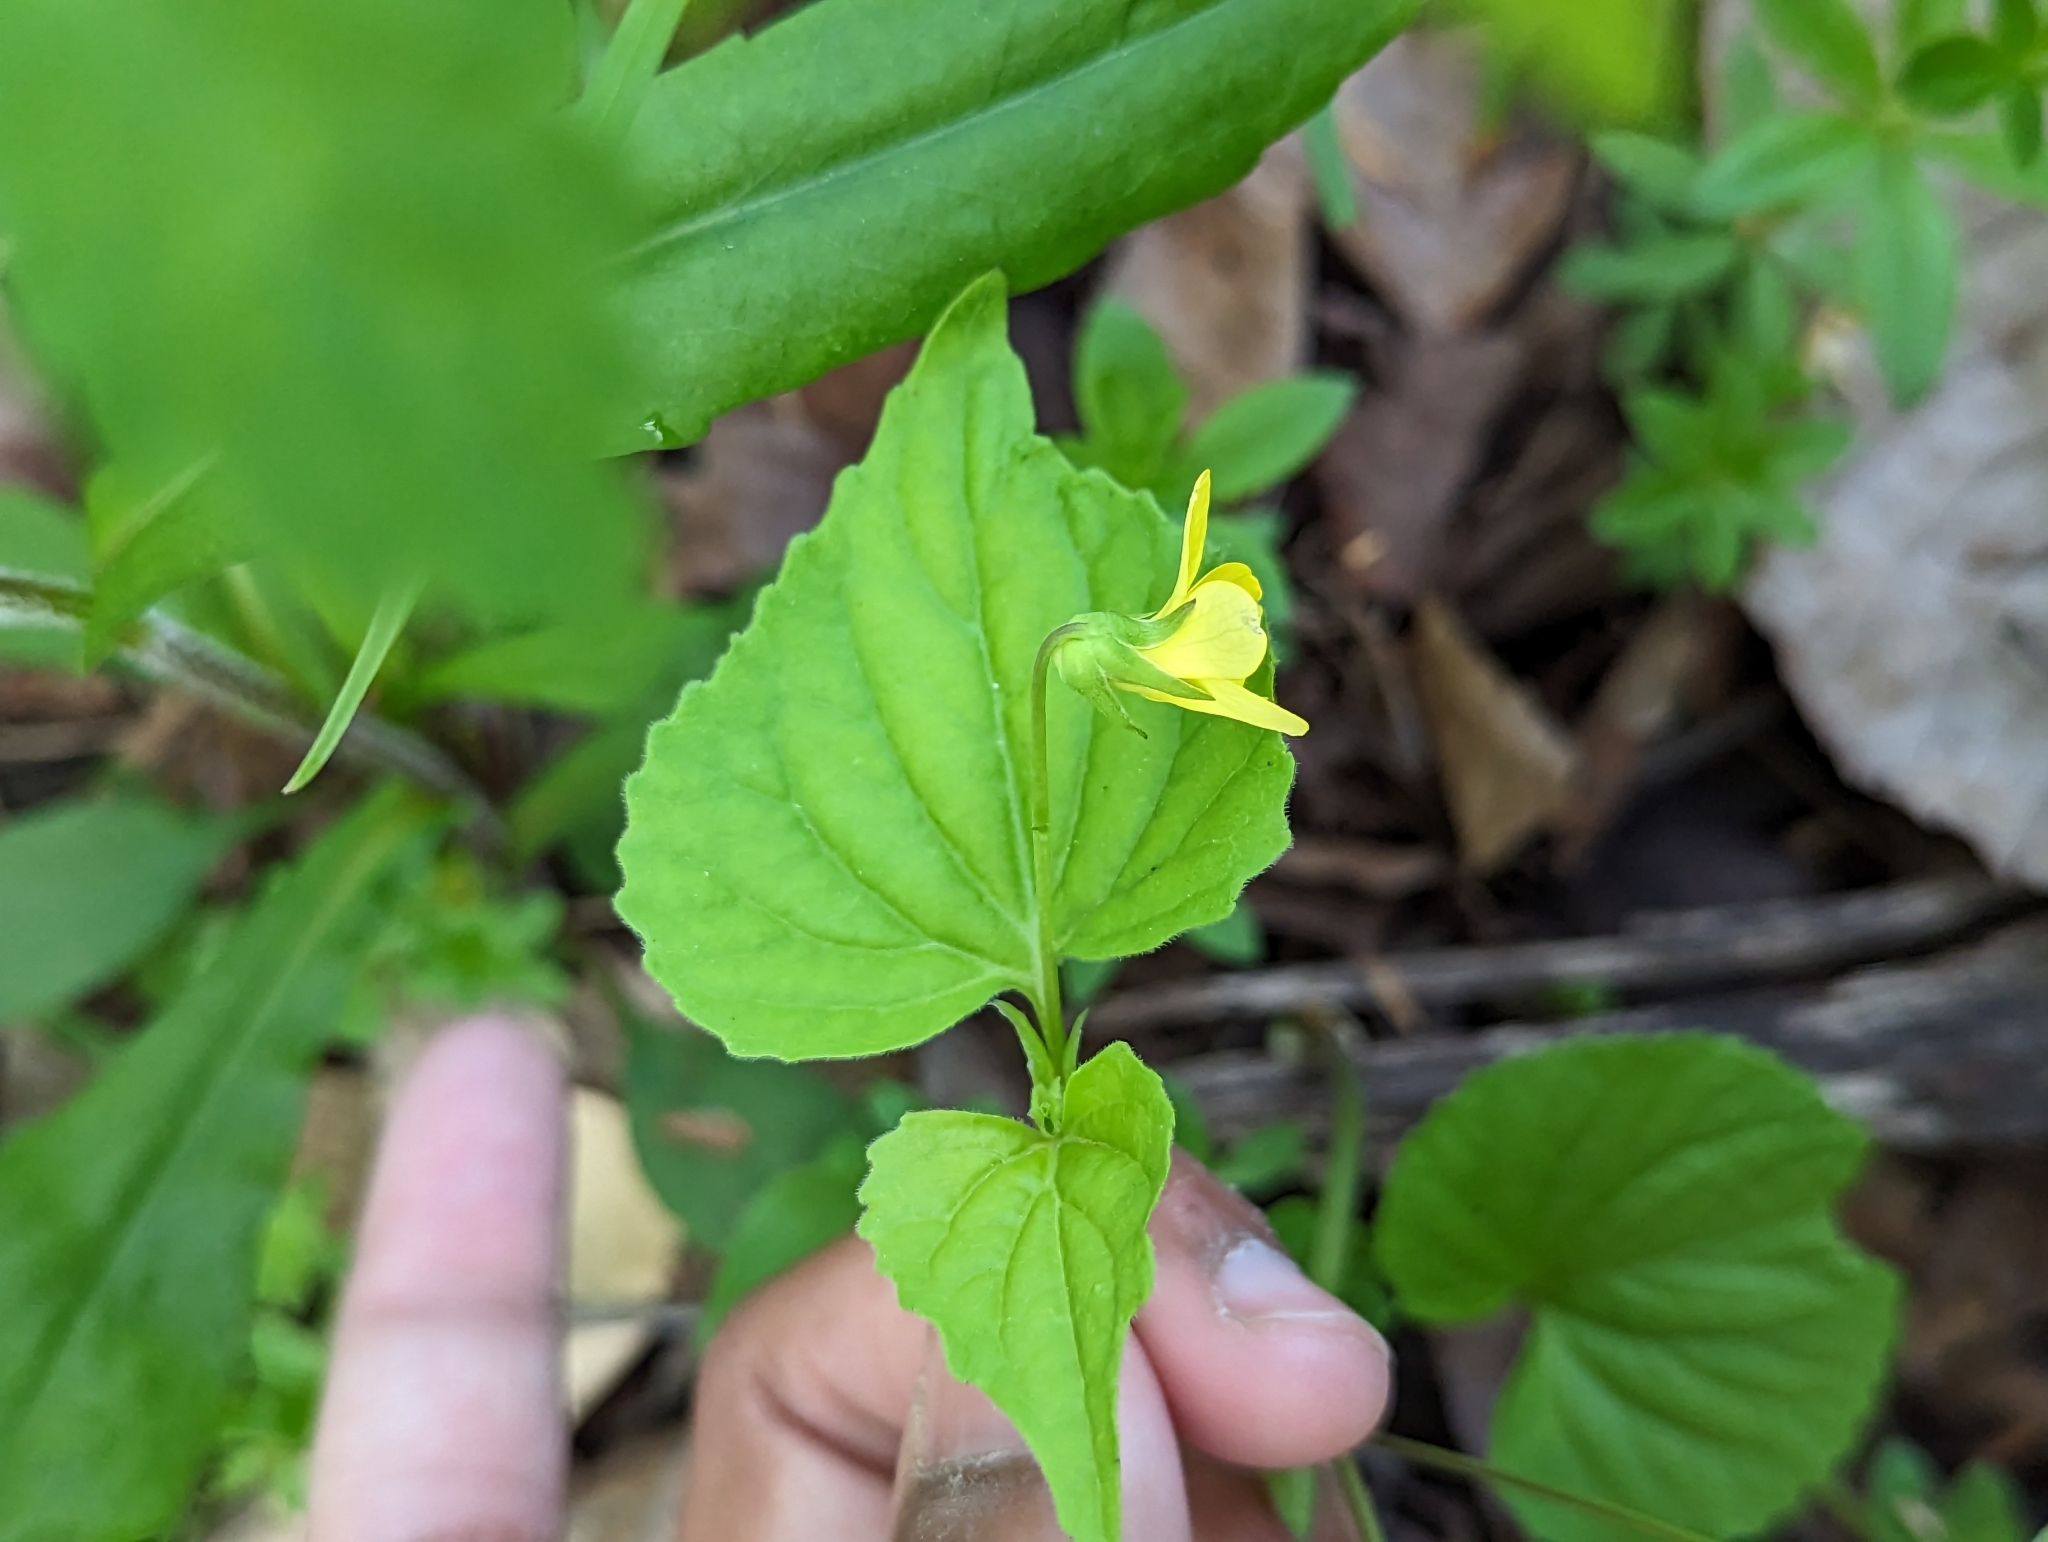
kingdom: Plantae
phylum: Tracheophyta
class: Magnoliopsida
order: Malpighiales
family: Violaceae
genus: Viola
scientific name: Viola eriocarpa
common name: Smooth yellow violet
